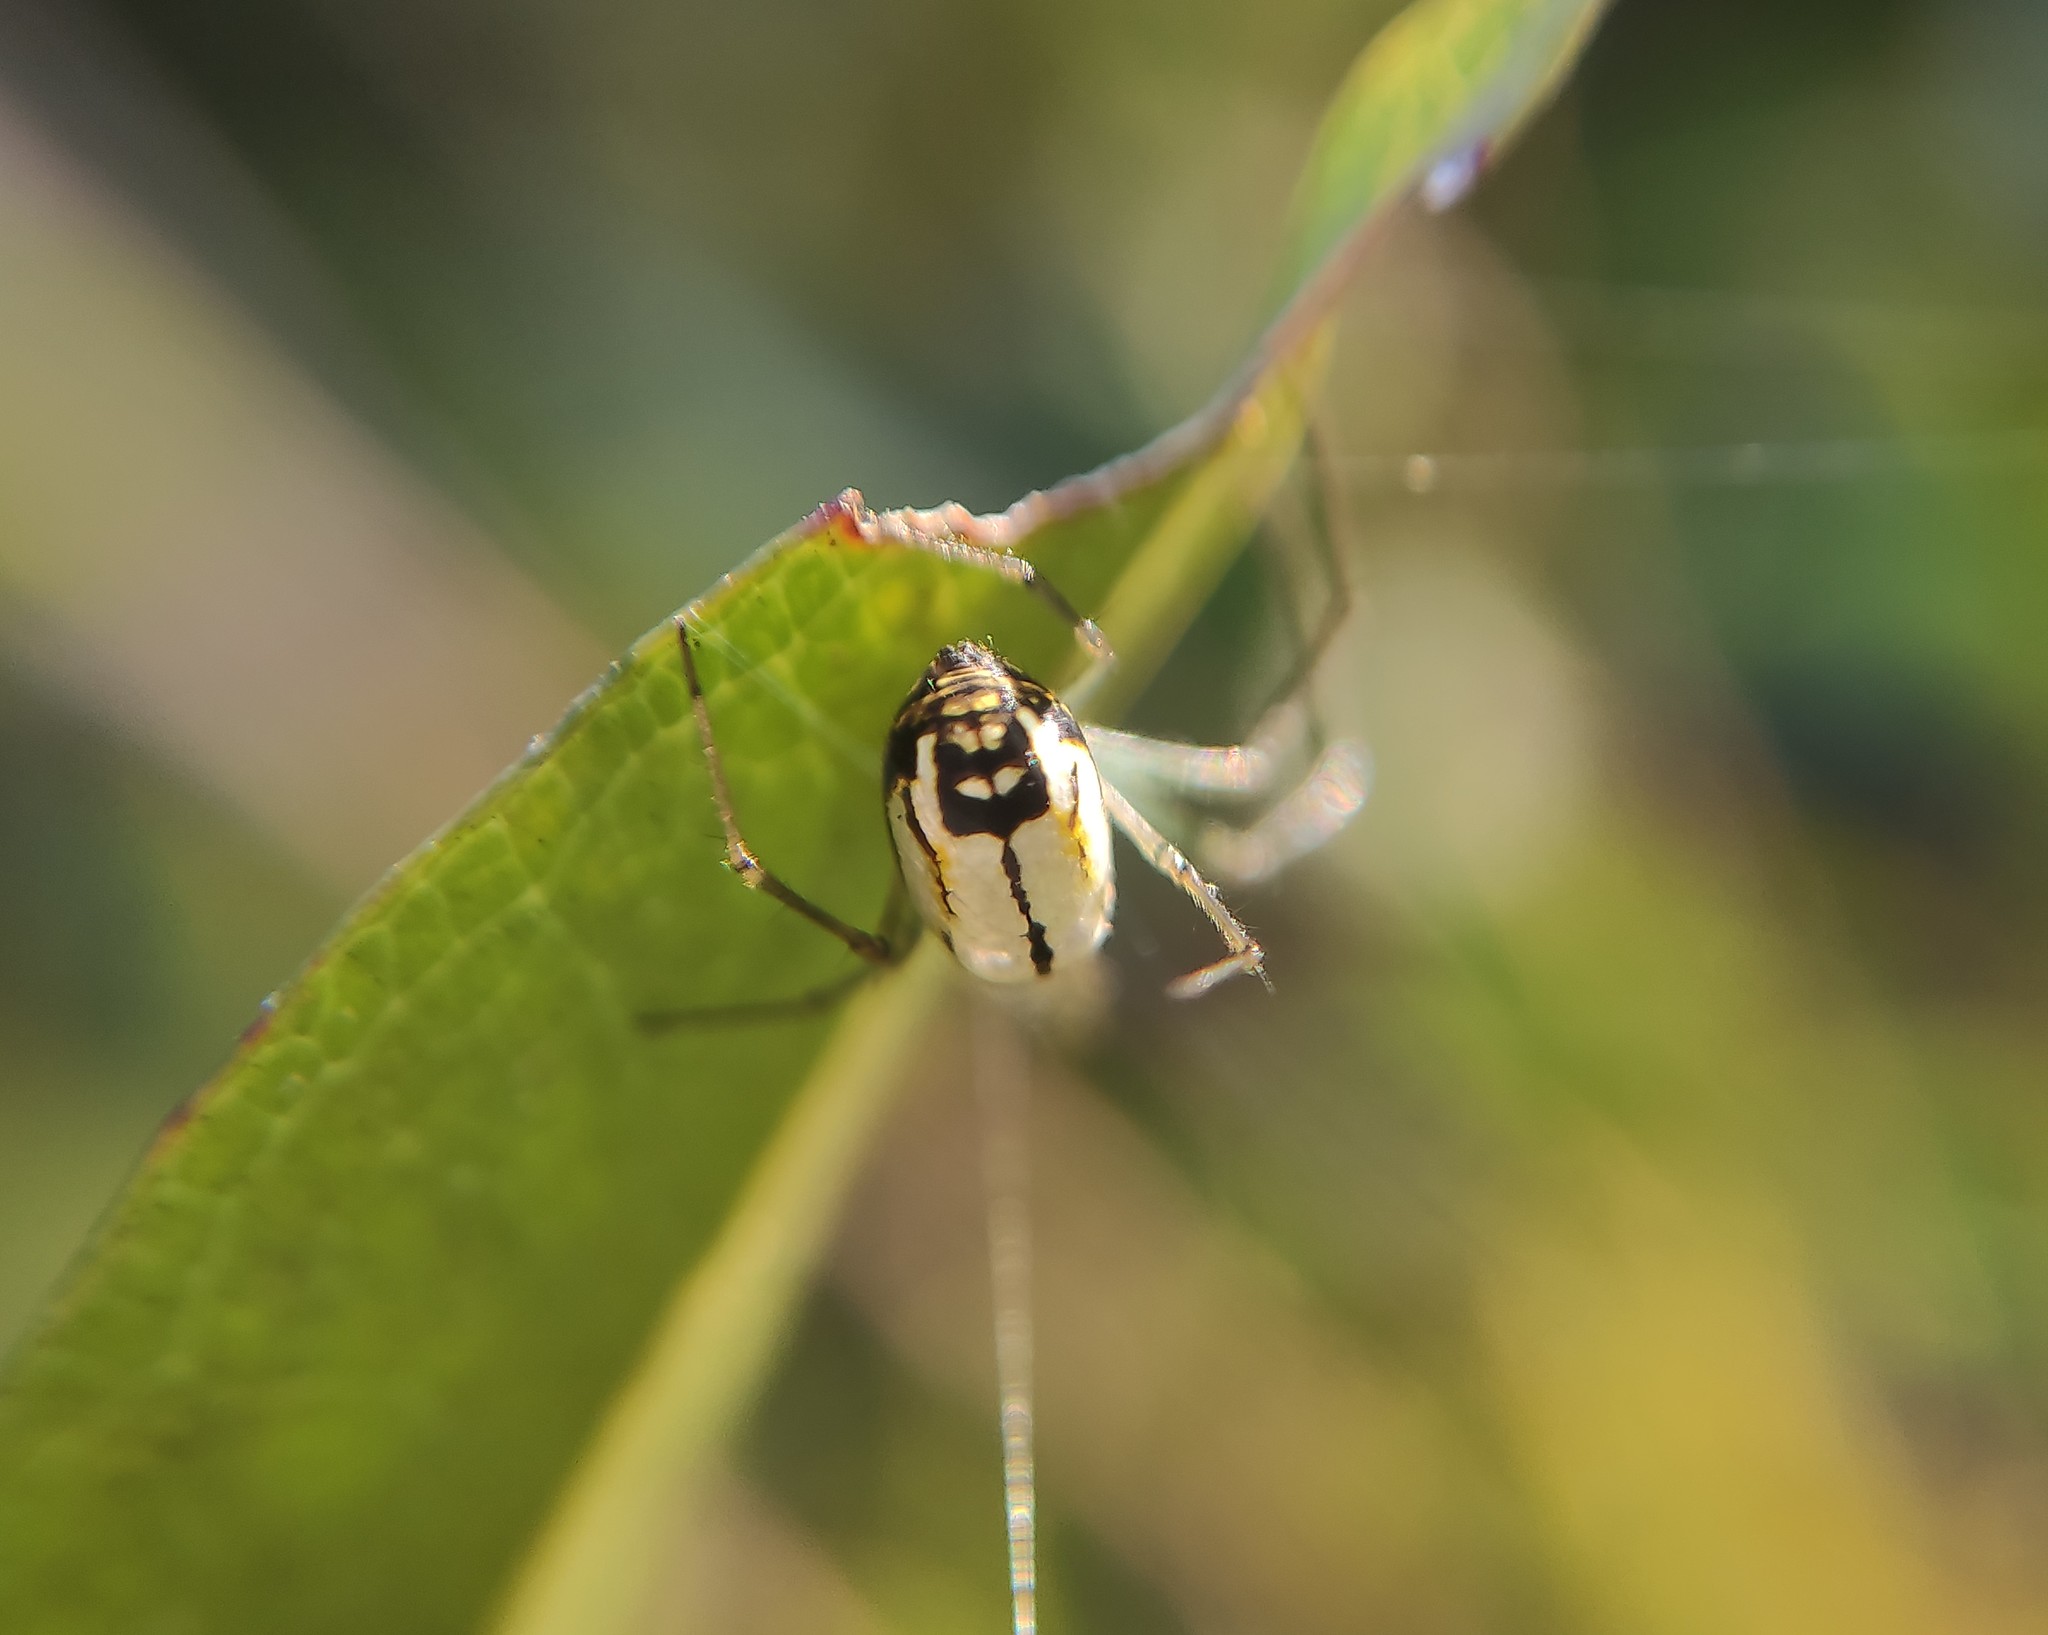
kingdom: Animalia
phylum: Arthropoda
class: Arachnida
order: Araneae
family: Tetragnathidae
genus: Leucauge
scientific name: Leucauge volupis
